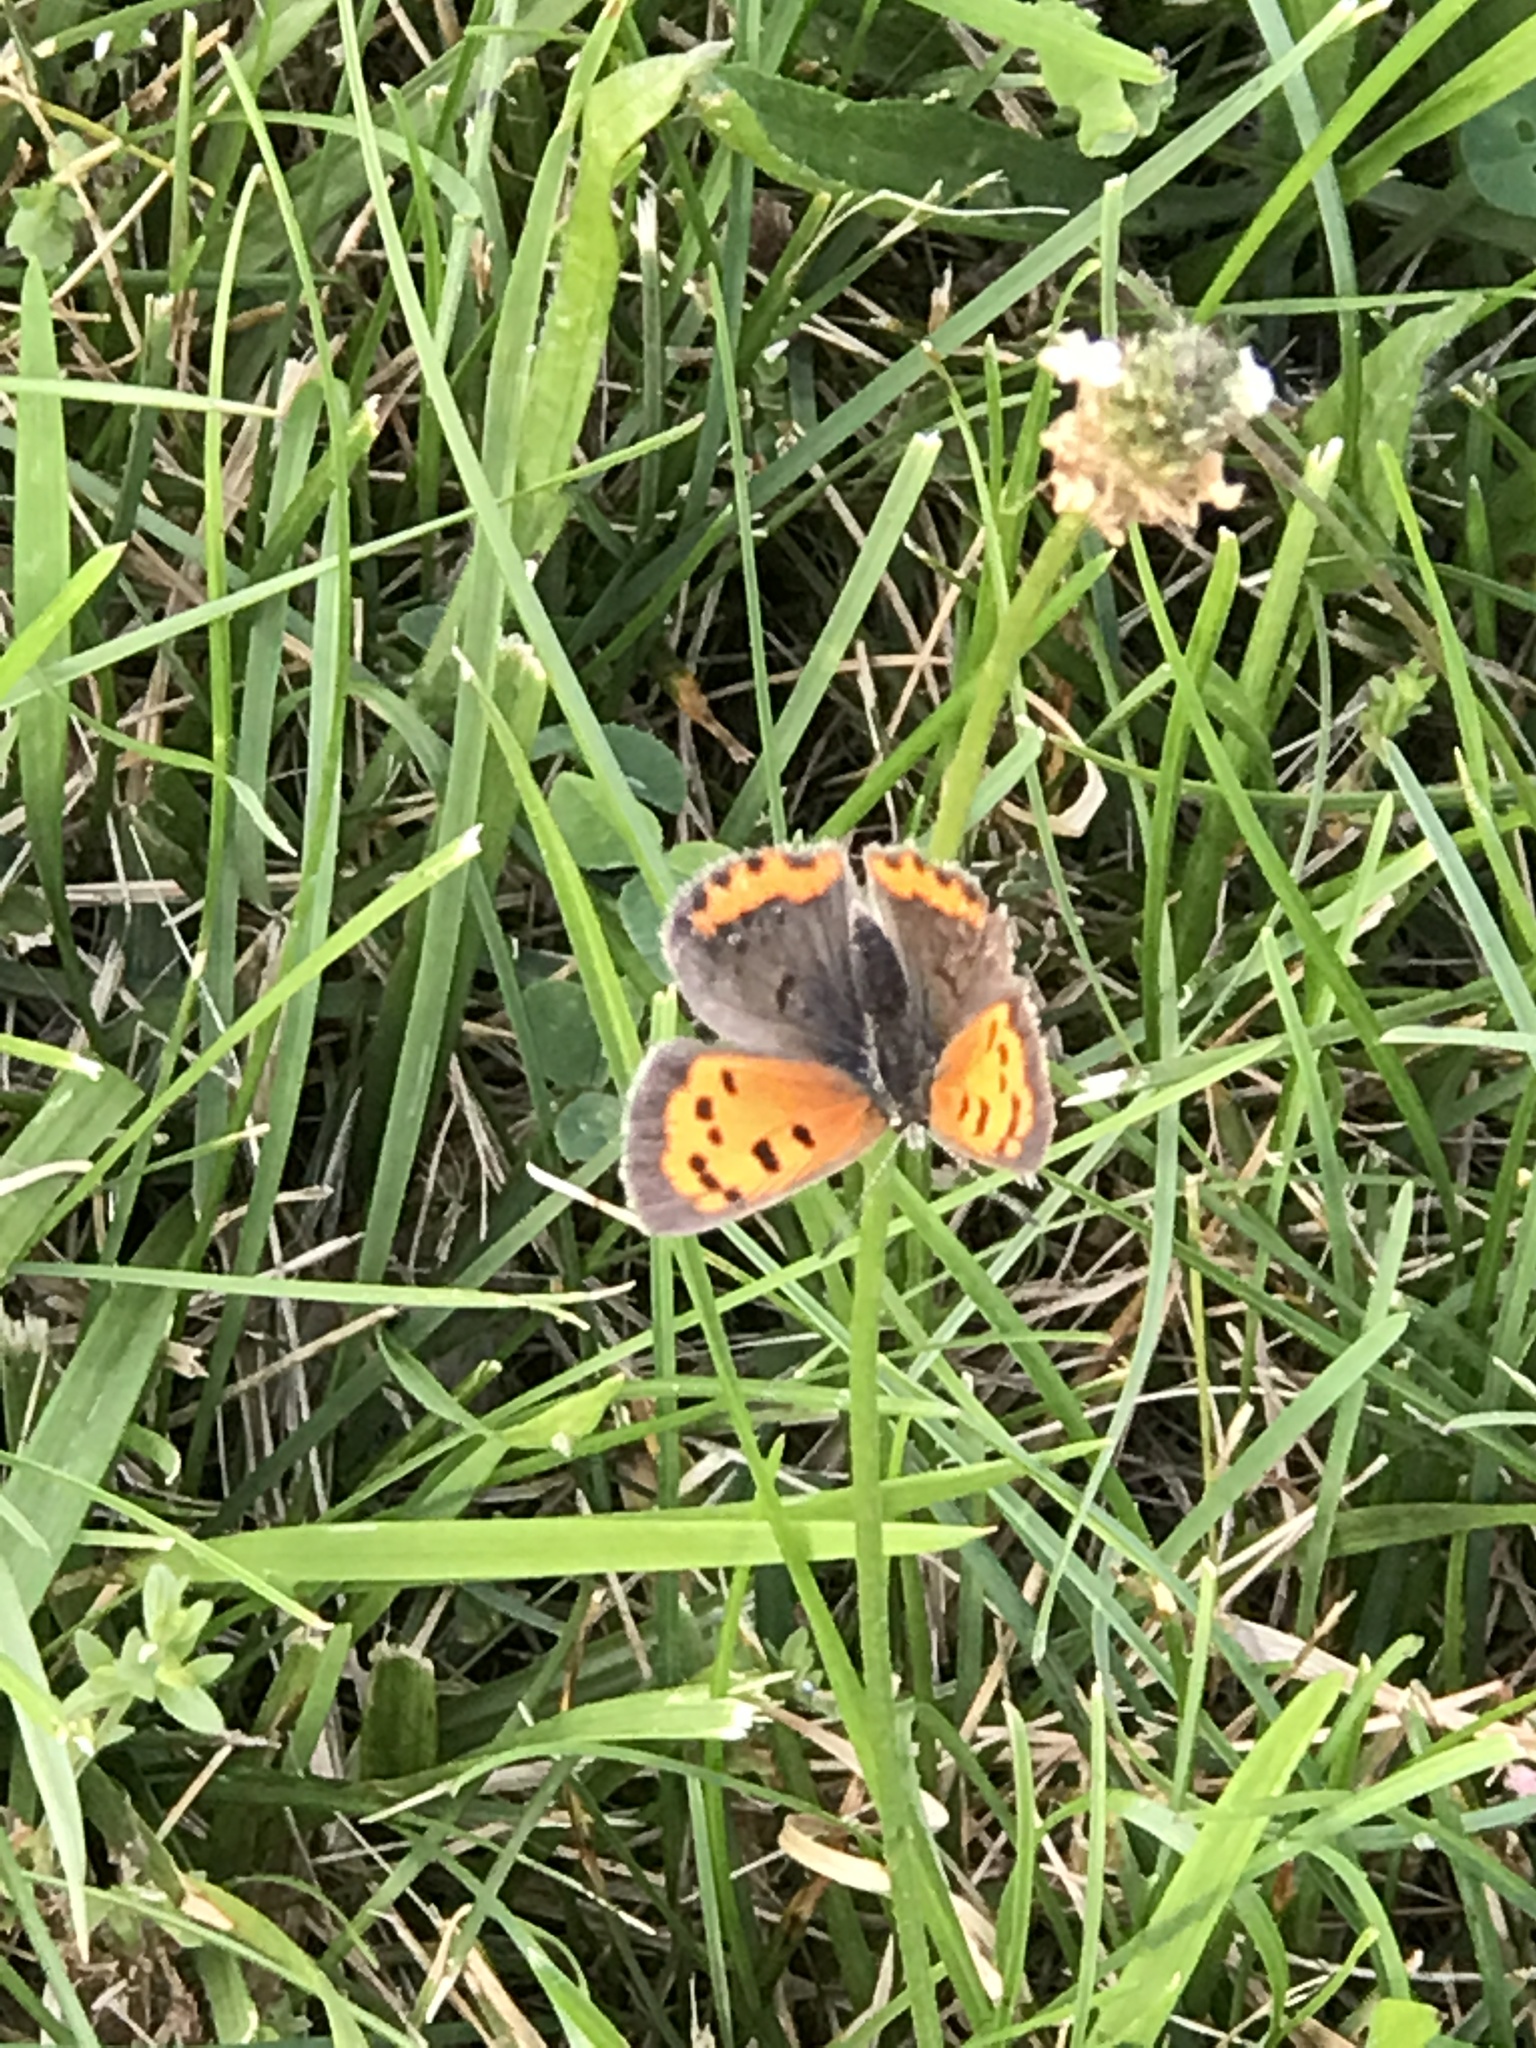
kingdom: Animalia
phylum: Arthropoda
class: Insecta
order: Lepidoptera
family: Lycaenidae
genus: Lycaena
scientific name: Lycaena hypophlaeas
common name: American copper
